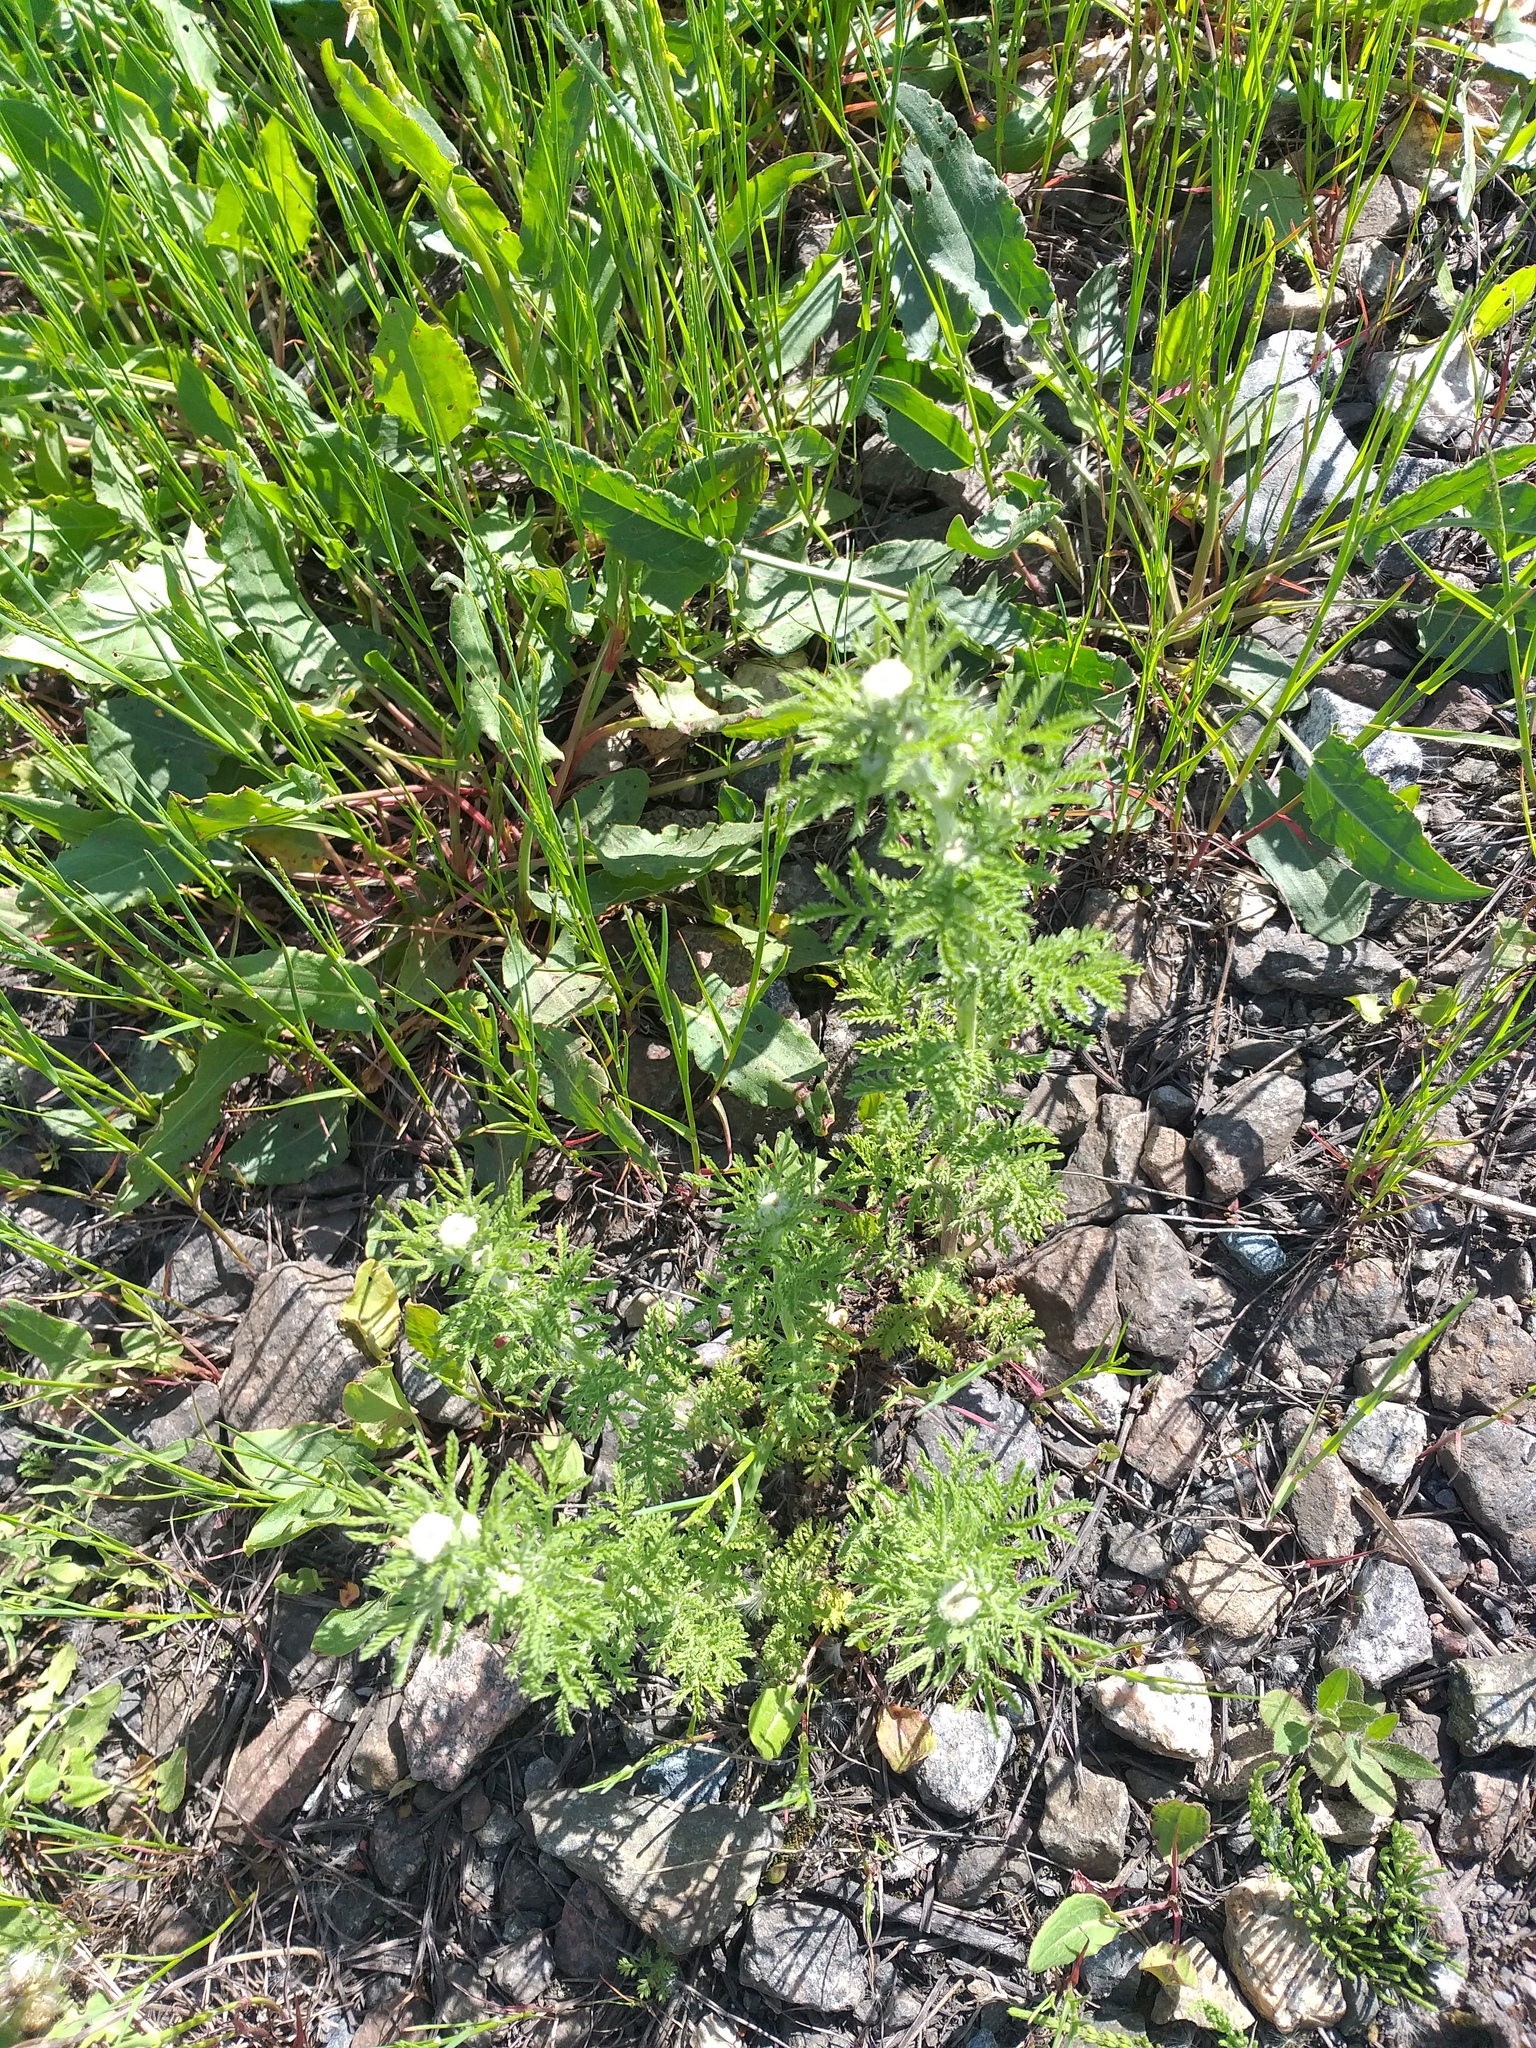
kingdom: Plantae
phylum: Tracheophyta
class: Magnoliopsida
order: Asterales
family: Asteraceae
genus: Cota
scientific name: Cota tinctoria
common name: Golden chamomile
